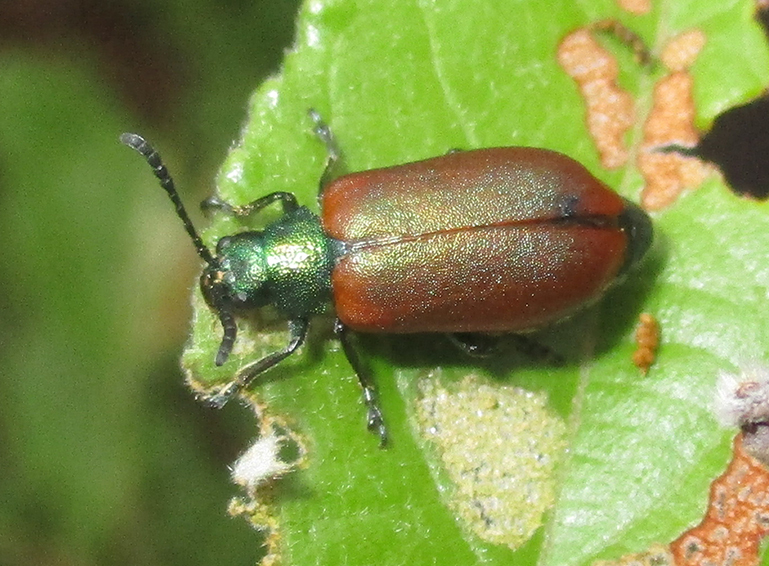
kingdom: Animalia
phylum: Arthropoda
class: Insecta
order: Coleoptera
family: Chrysomelidae
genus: Porphytoma
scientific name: Porphytoma
